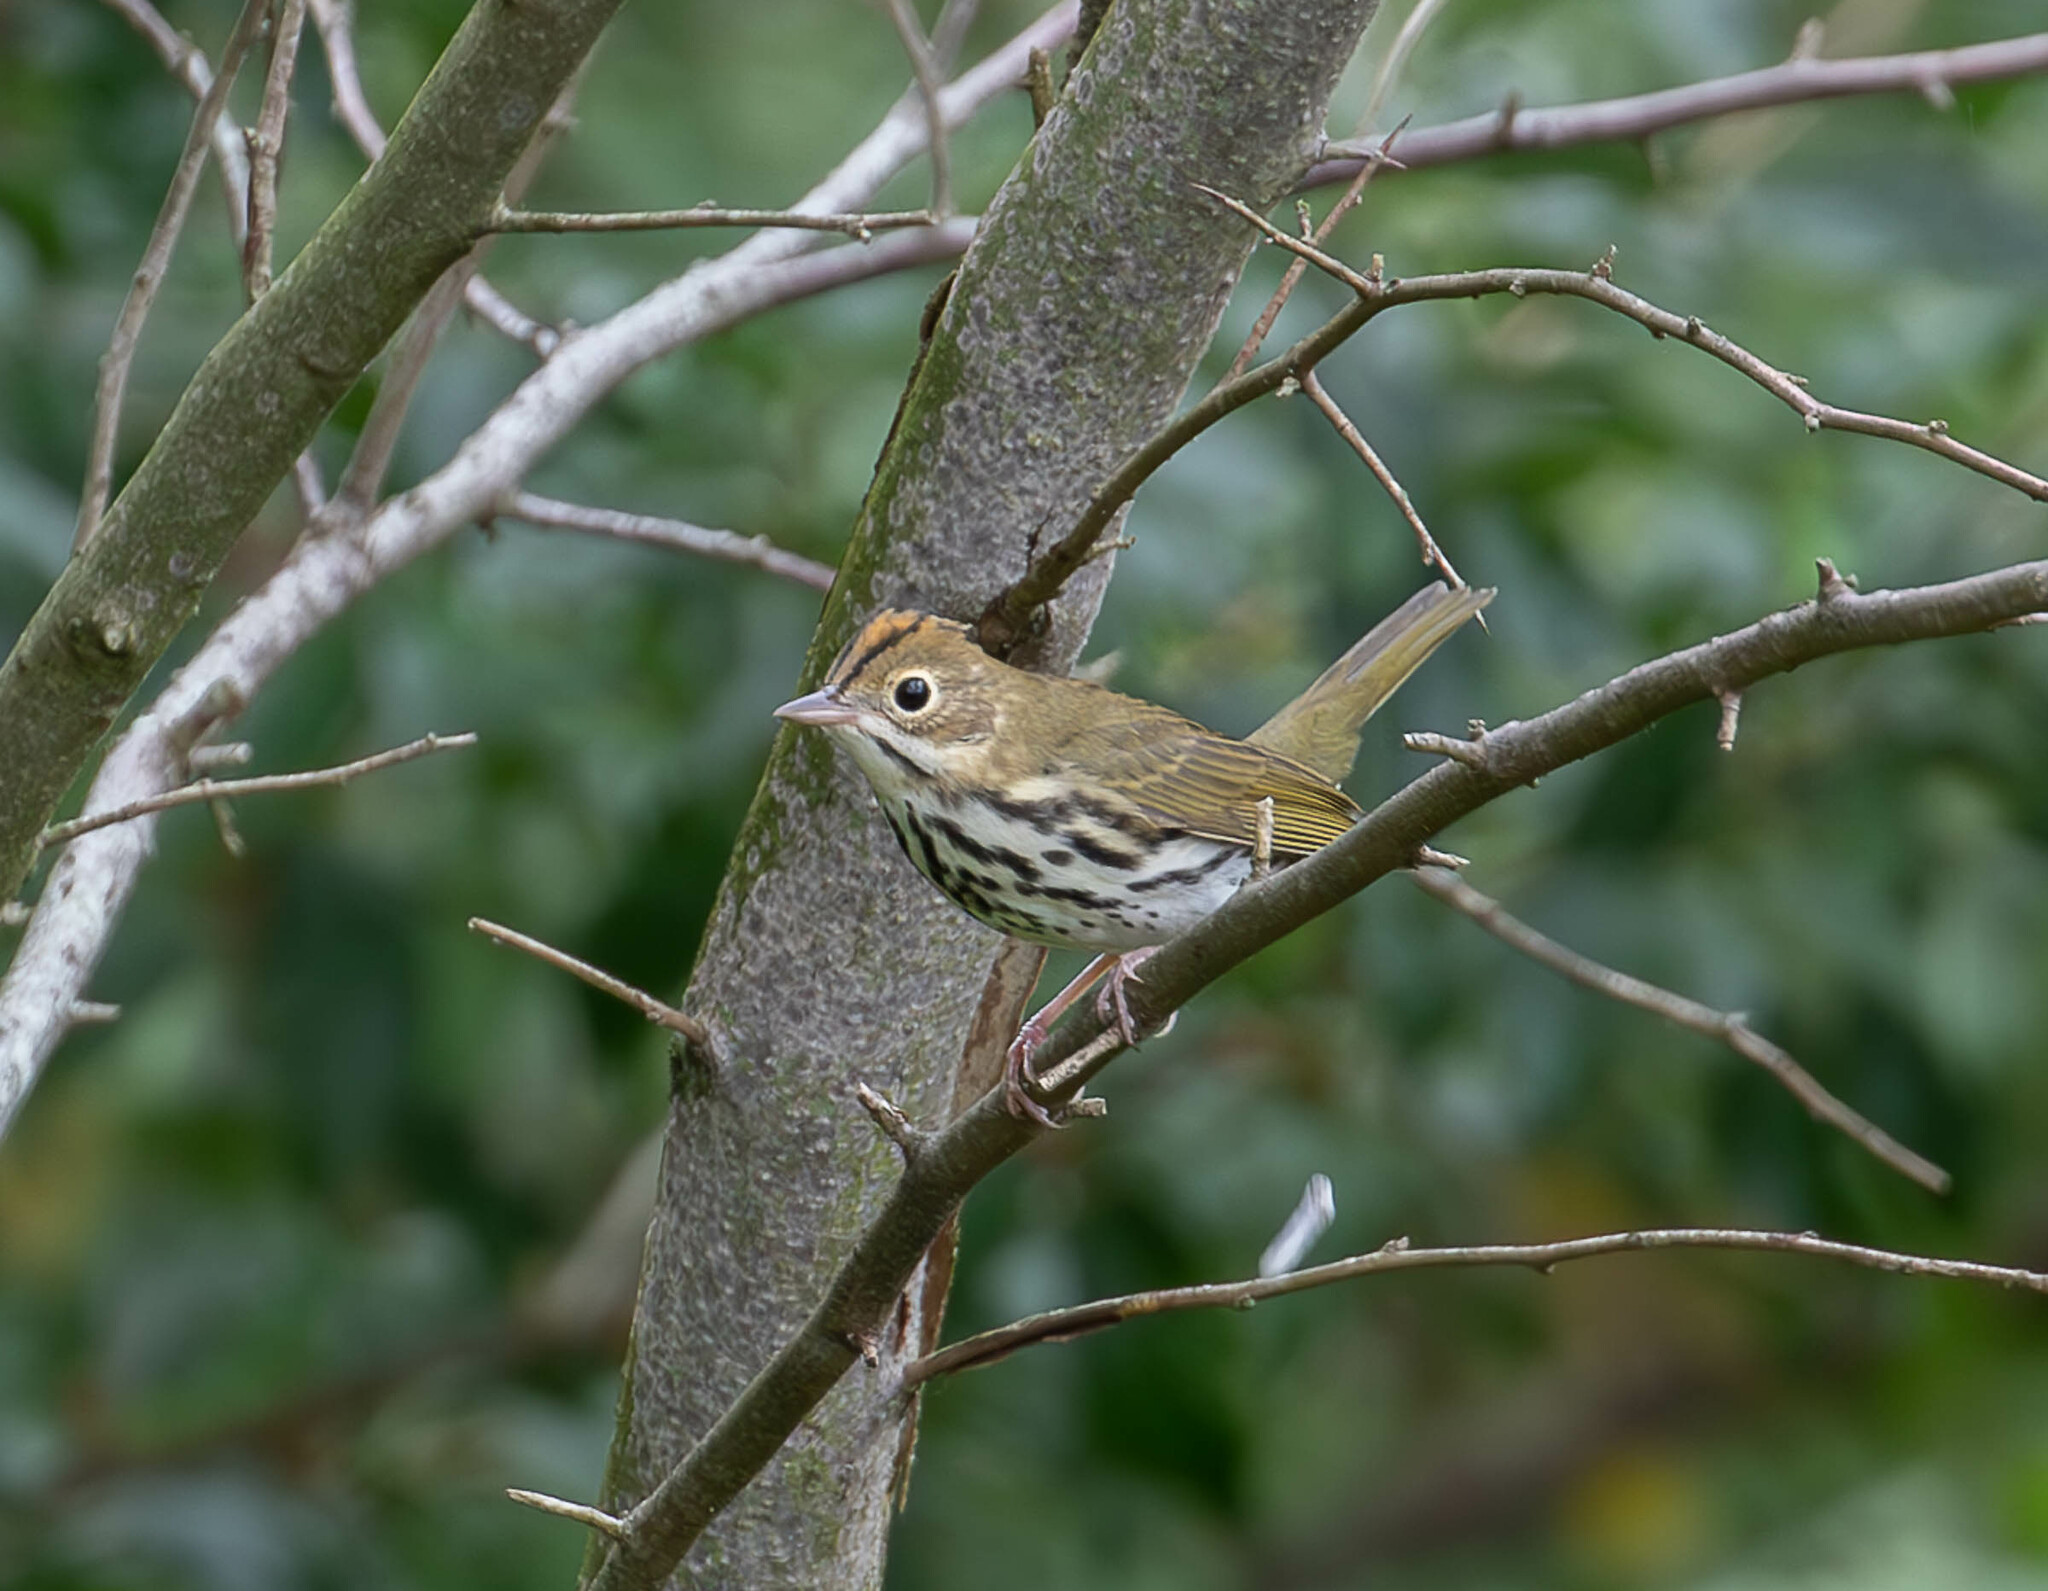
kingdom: Animalia
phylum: Chordata
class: Aves
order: Passeriformes
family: Parulidae
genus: Seiurus
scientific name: Seiurus aurocapilla
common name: Ovenbird
